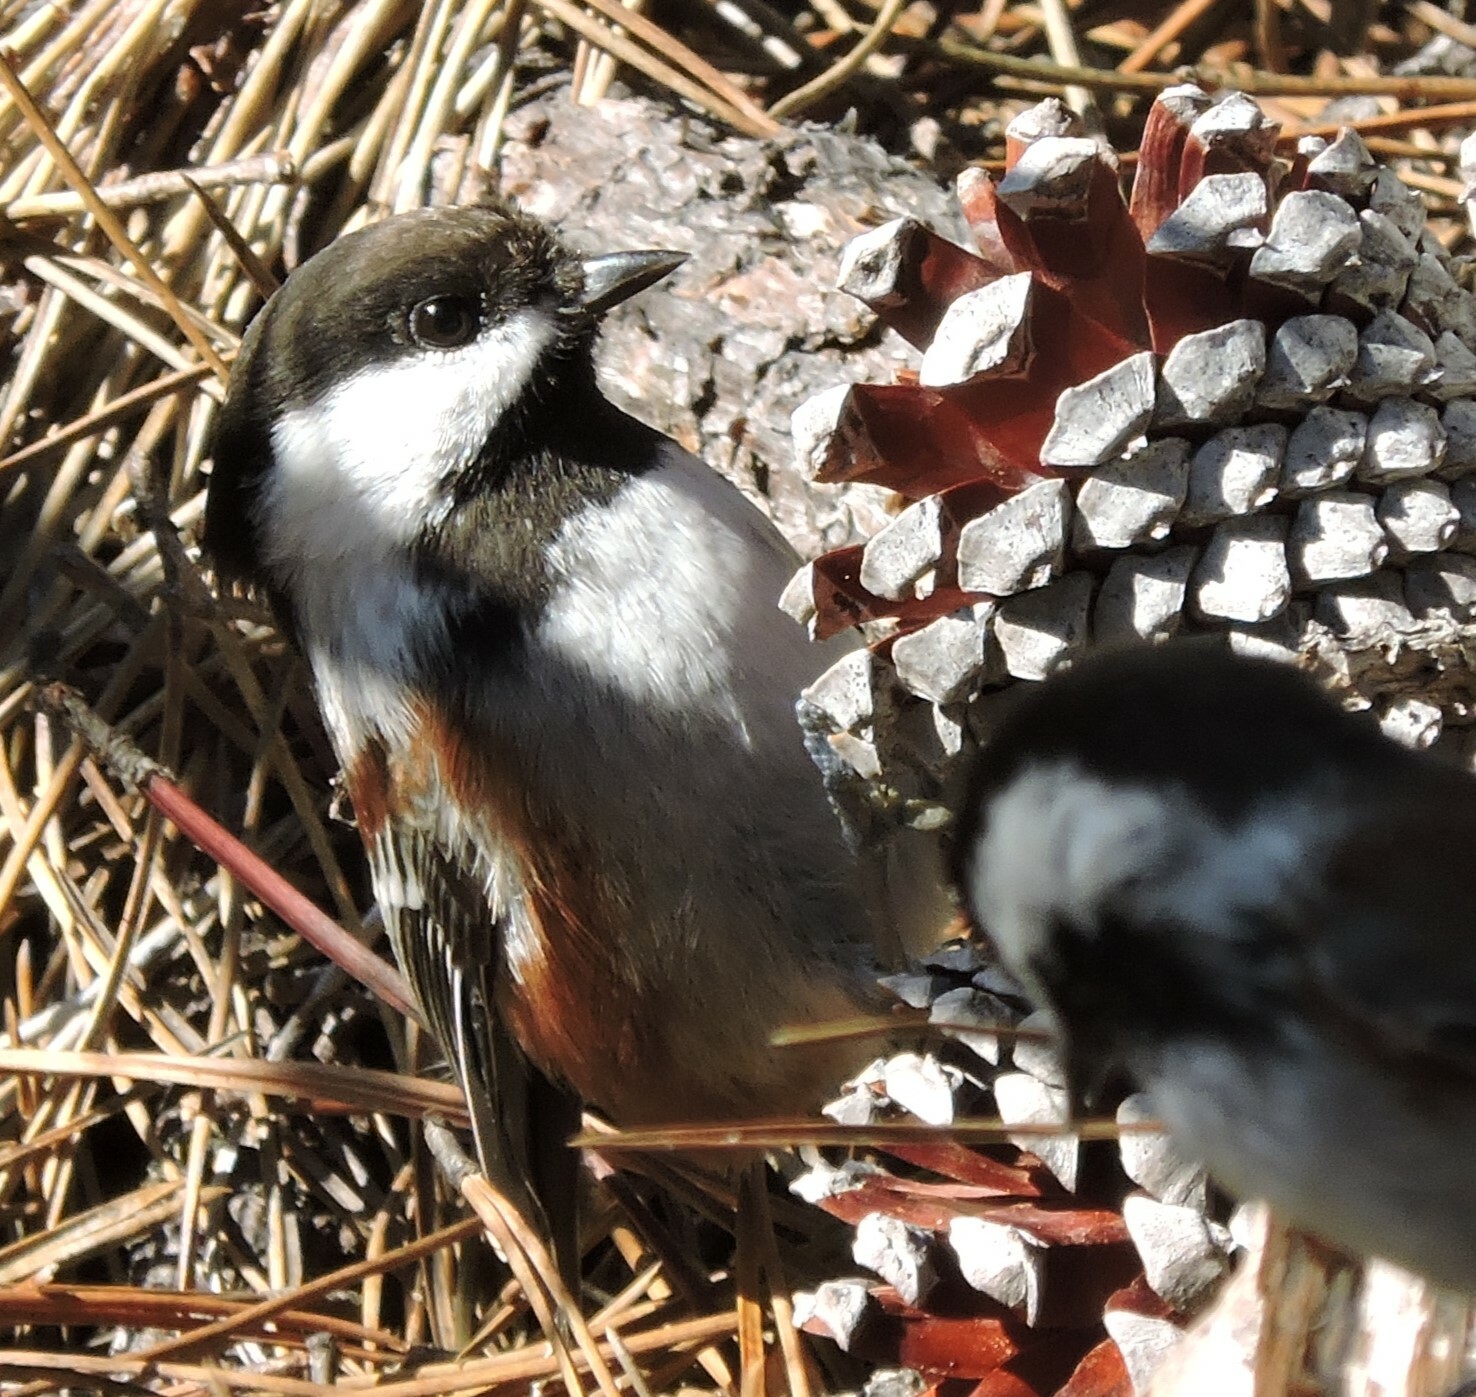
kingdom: Animalia
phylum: Chordata
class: Aves
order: Passeriformes
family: Paridae
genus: Poecile
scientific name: Poecile rufescens
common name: Chestnut-backed chickadee
